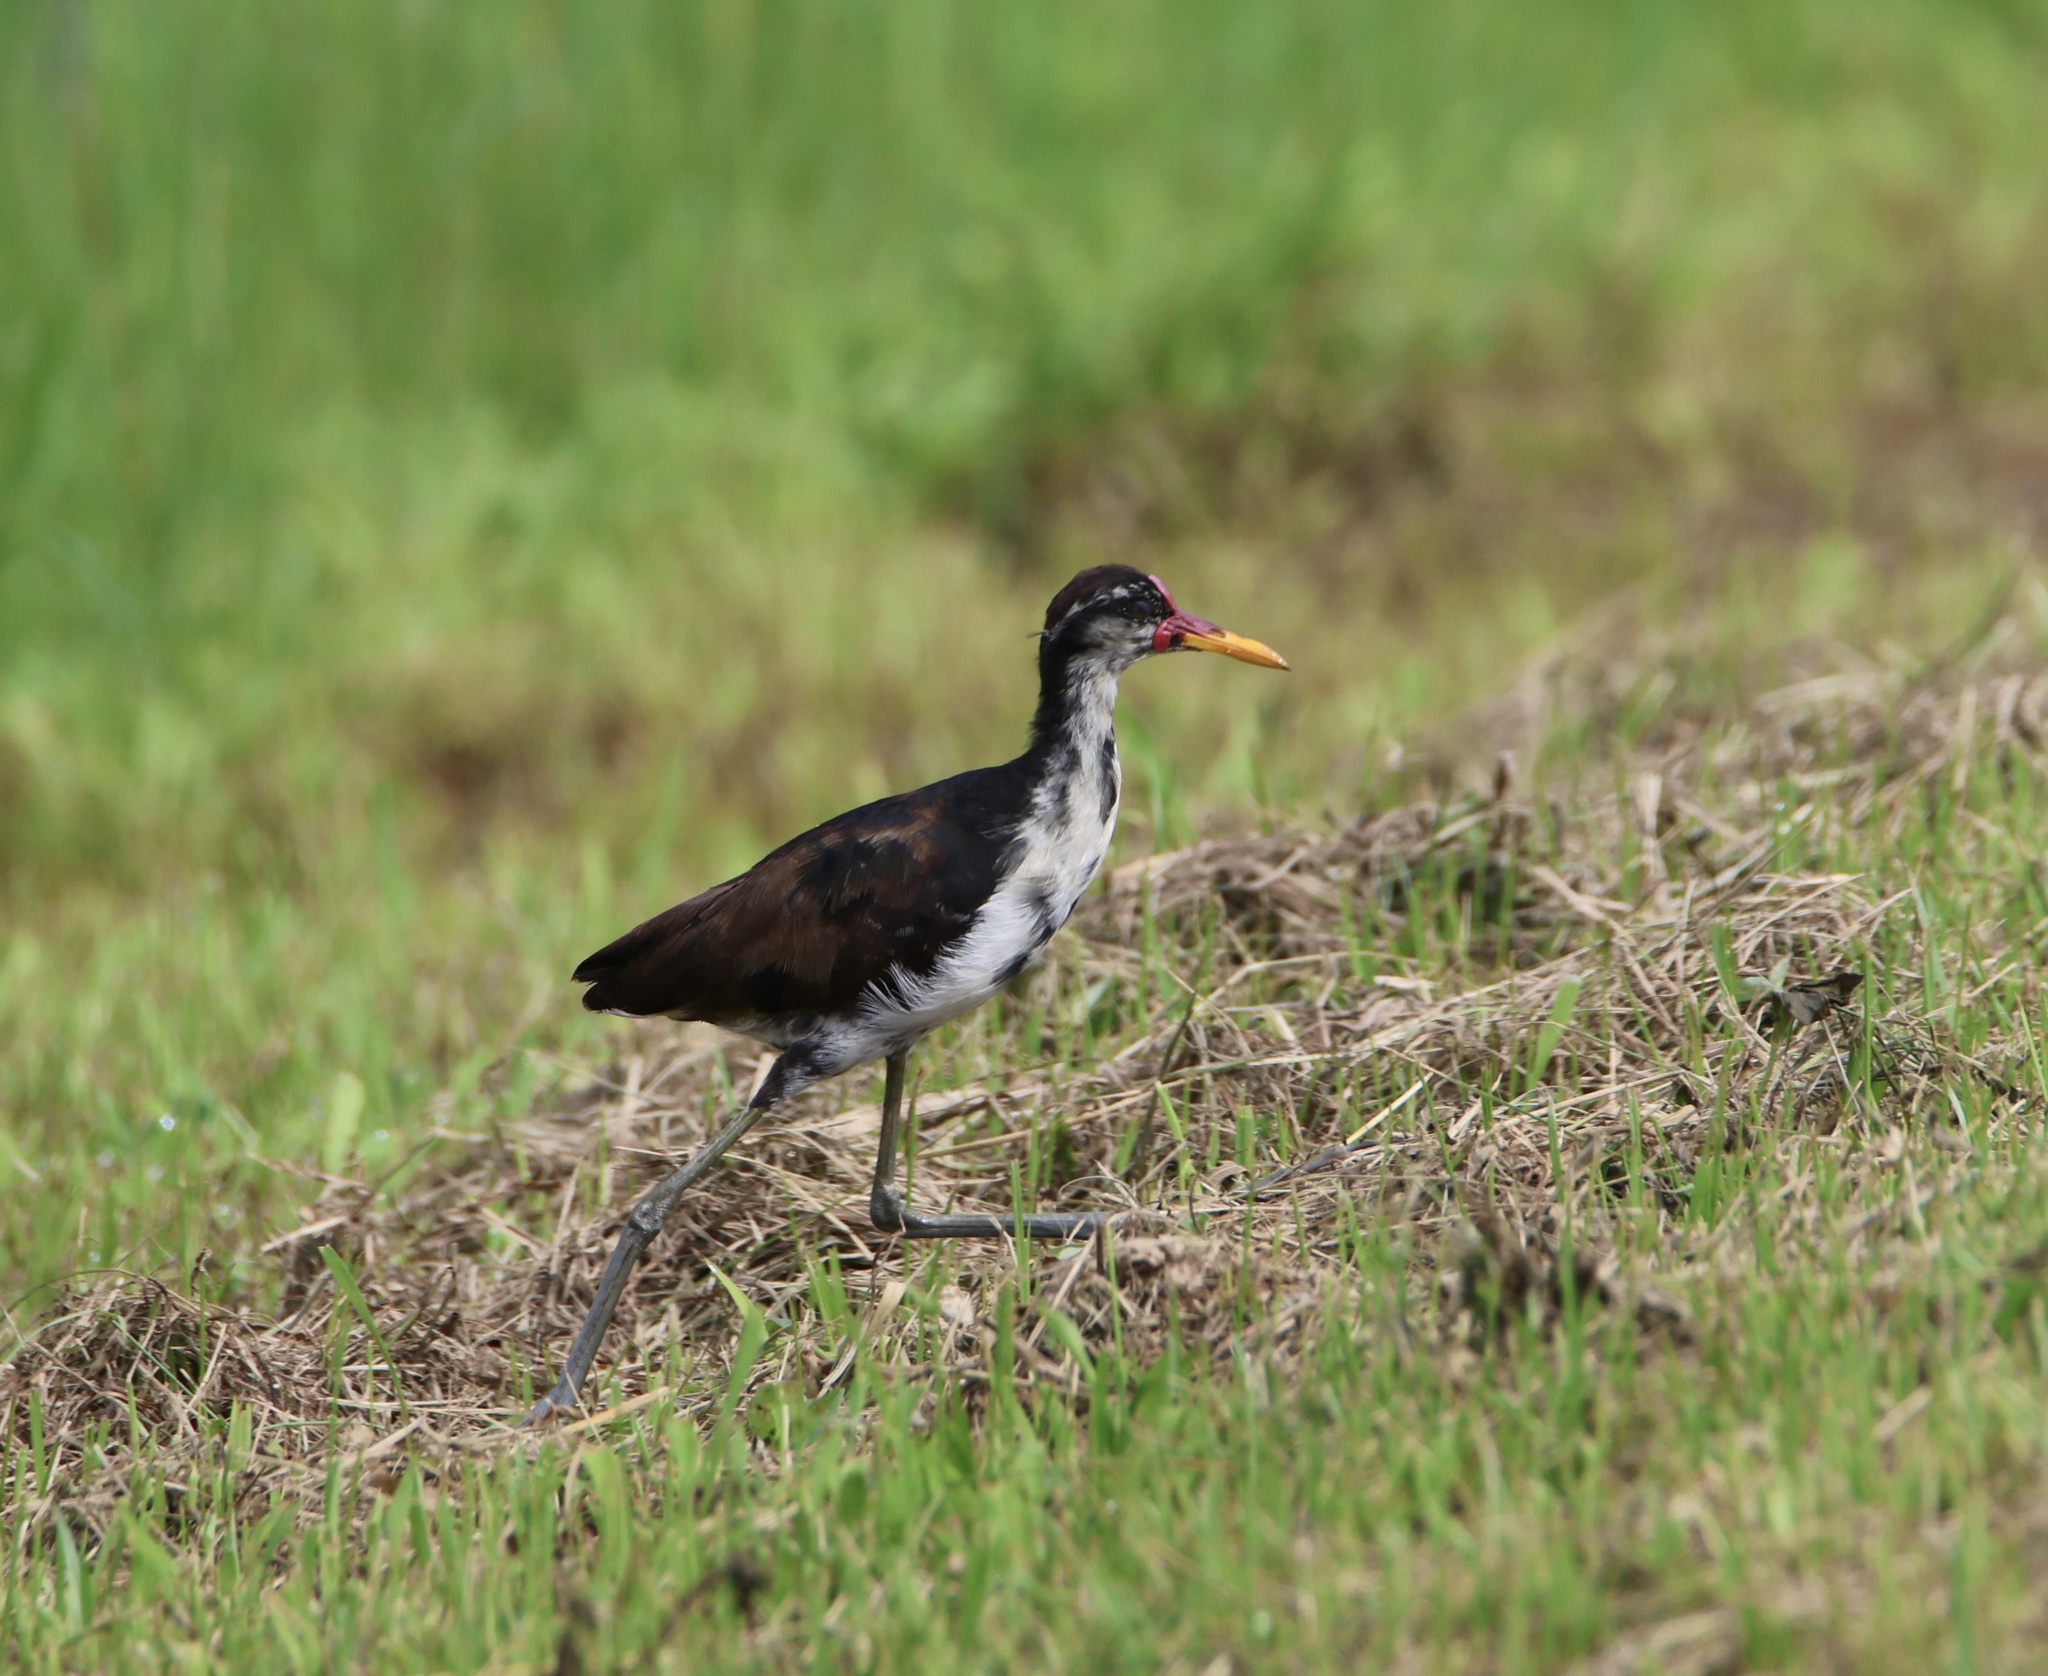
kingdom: Animalia
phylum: Chordata
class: Aves
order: Charadriiformes
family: Jacanidae
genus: Jacana
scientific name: Jacana jacana
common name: Wattled jacana
